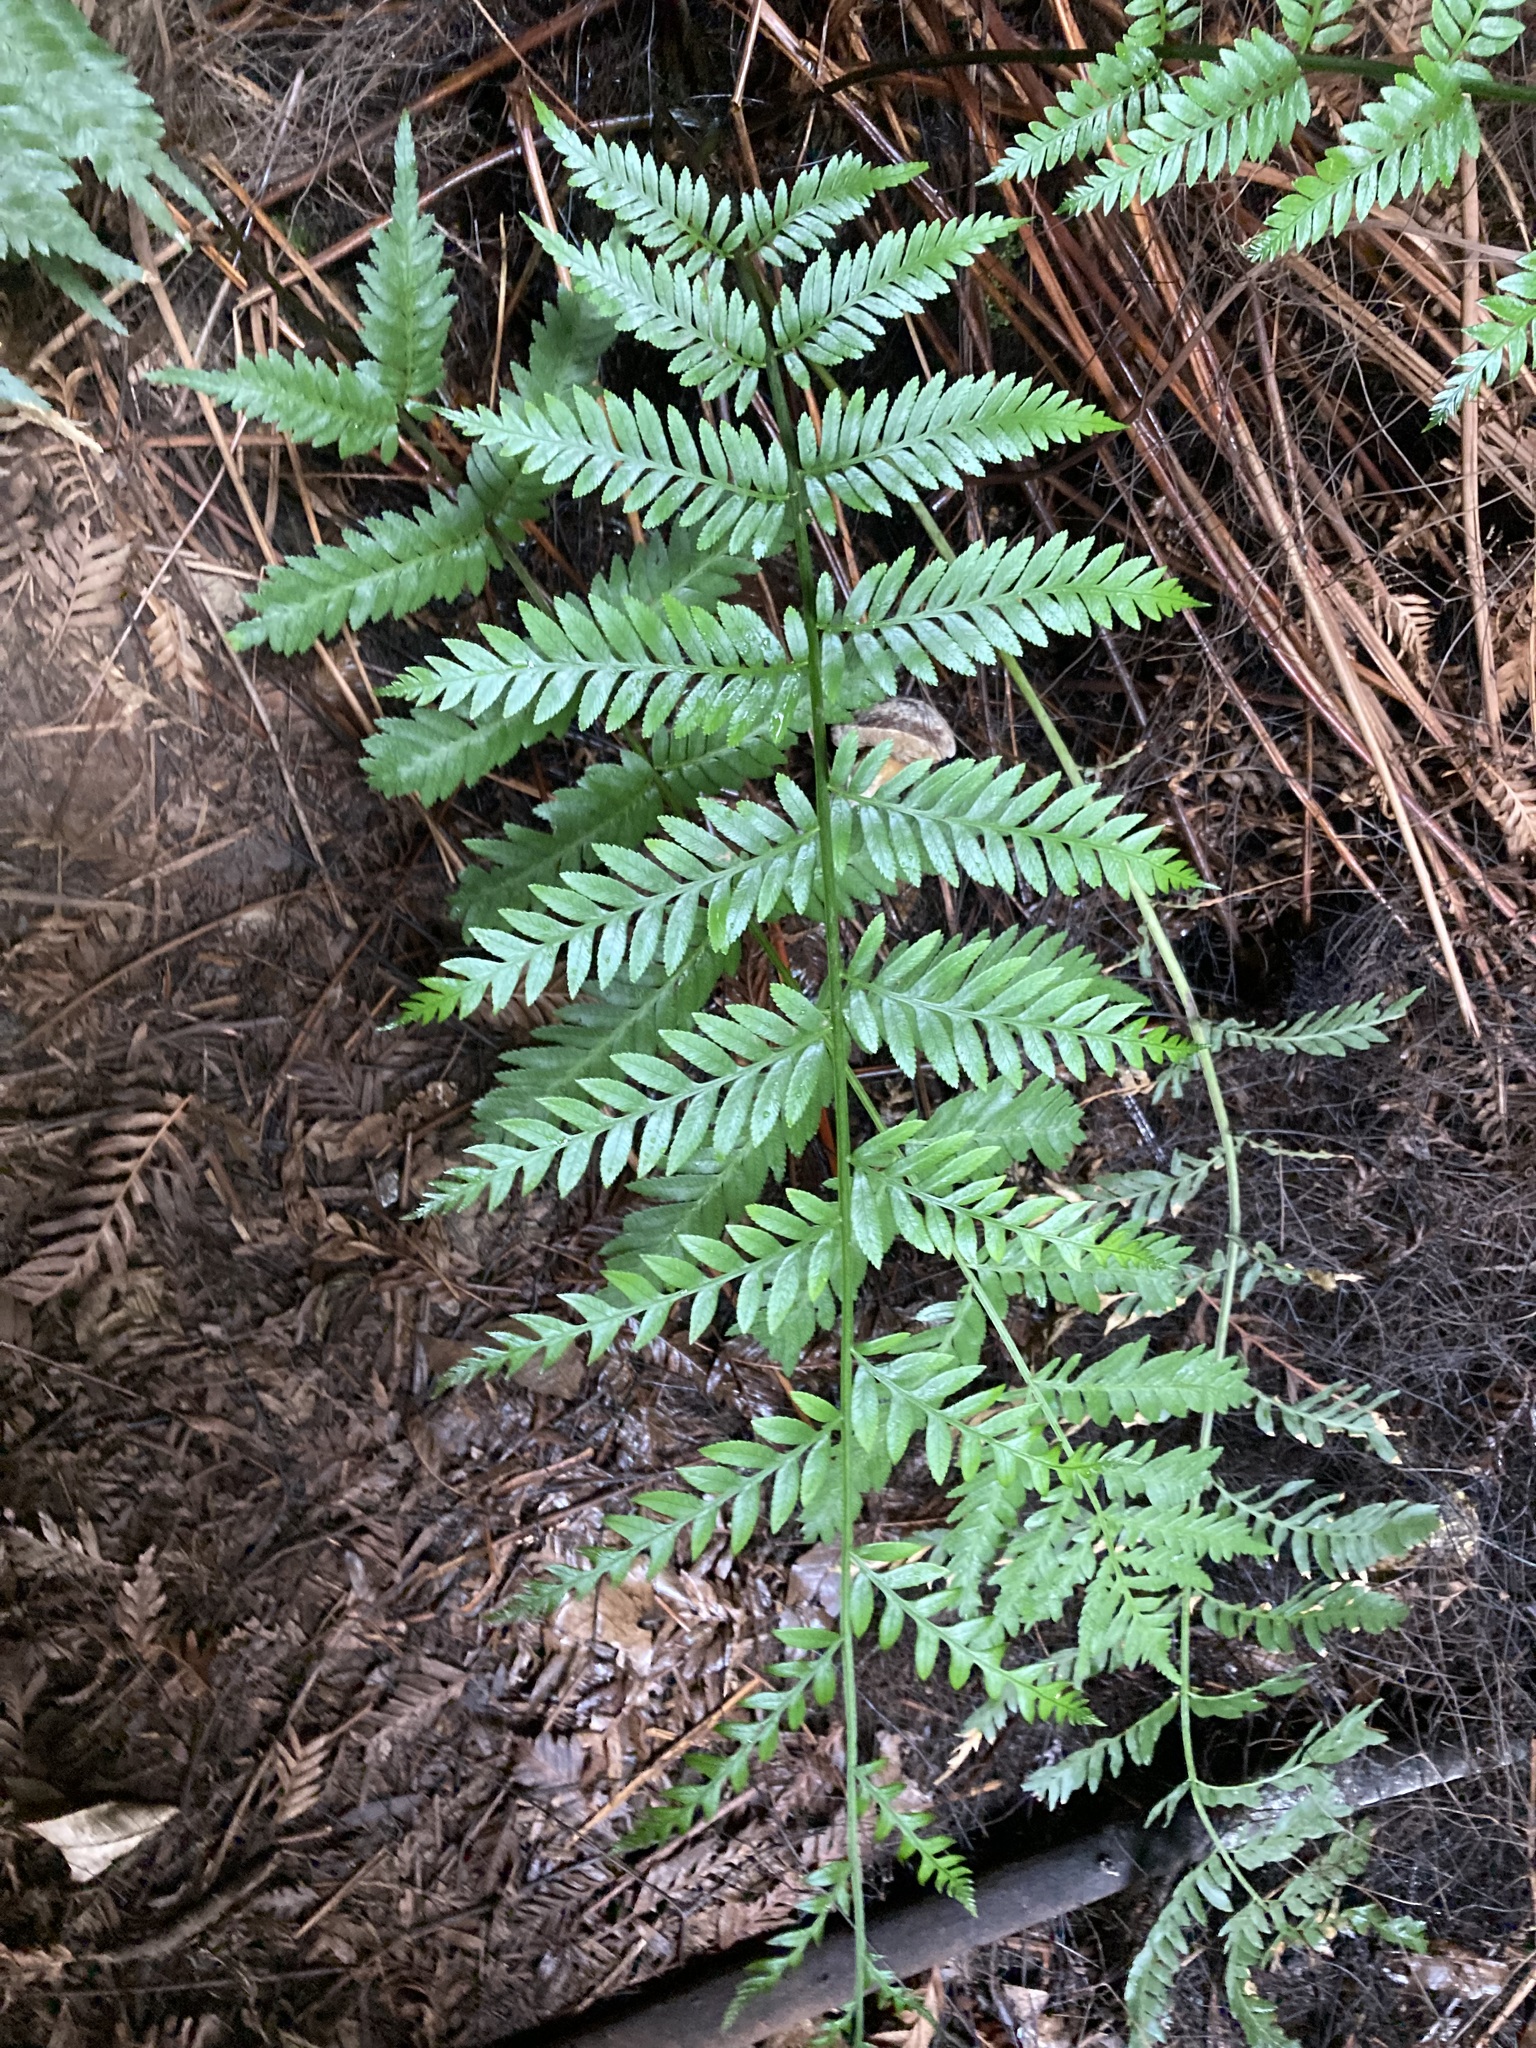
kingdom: Plantae
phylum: Tracheophyta
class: Polypodiopsida
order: Osmundales
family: Osmundaceae
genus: Todea
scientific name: Todea barbara
